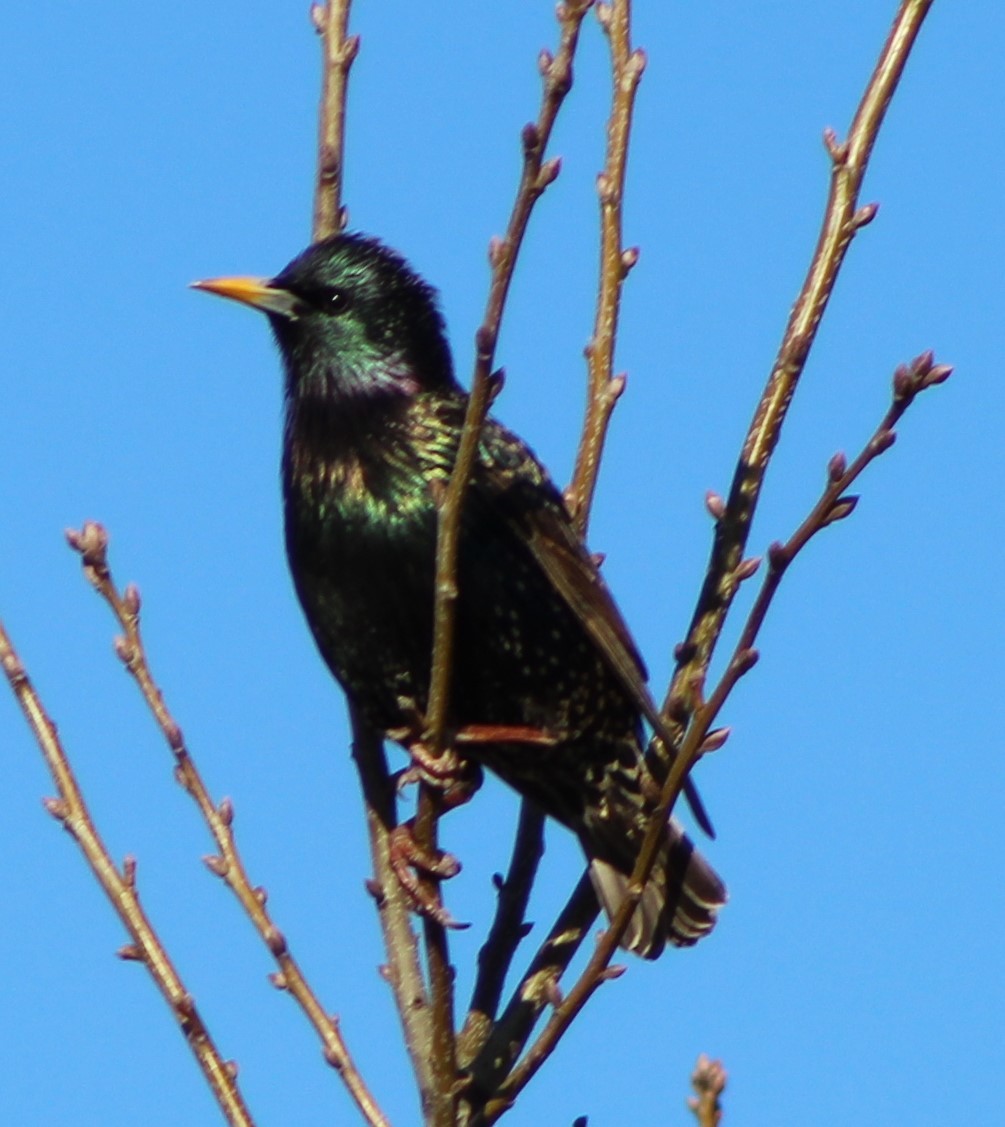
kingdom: Animalia
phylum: Chordata
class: Aves
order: Passeriformes
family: Sturnidae
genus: Sturnus
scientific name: Sturnus vulgaris
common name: Common starling
